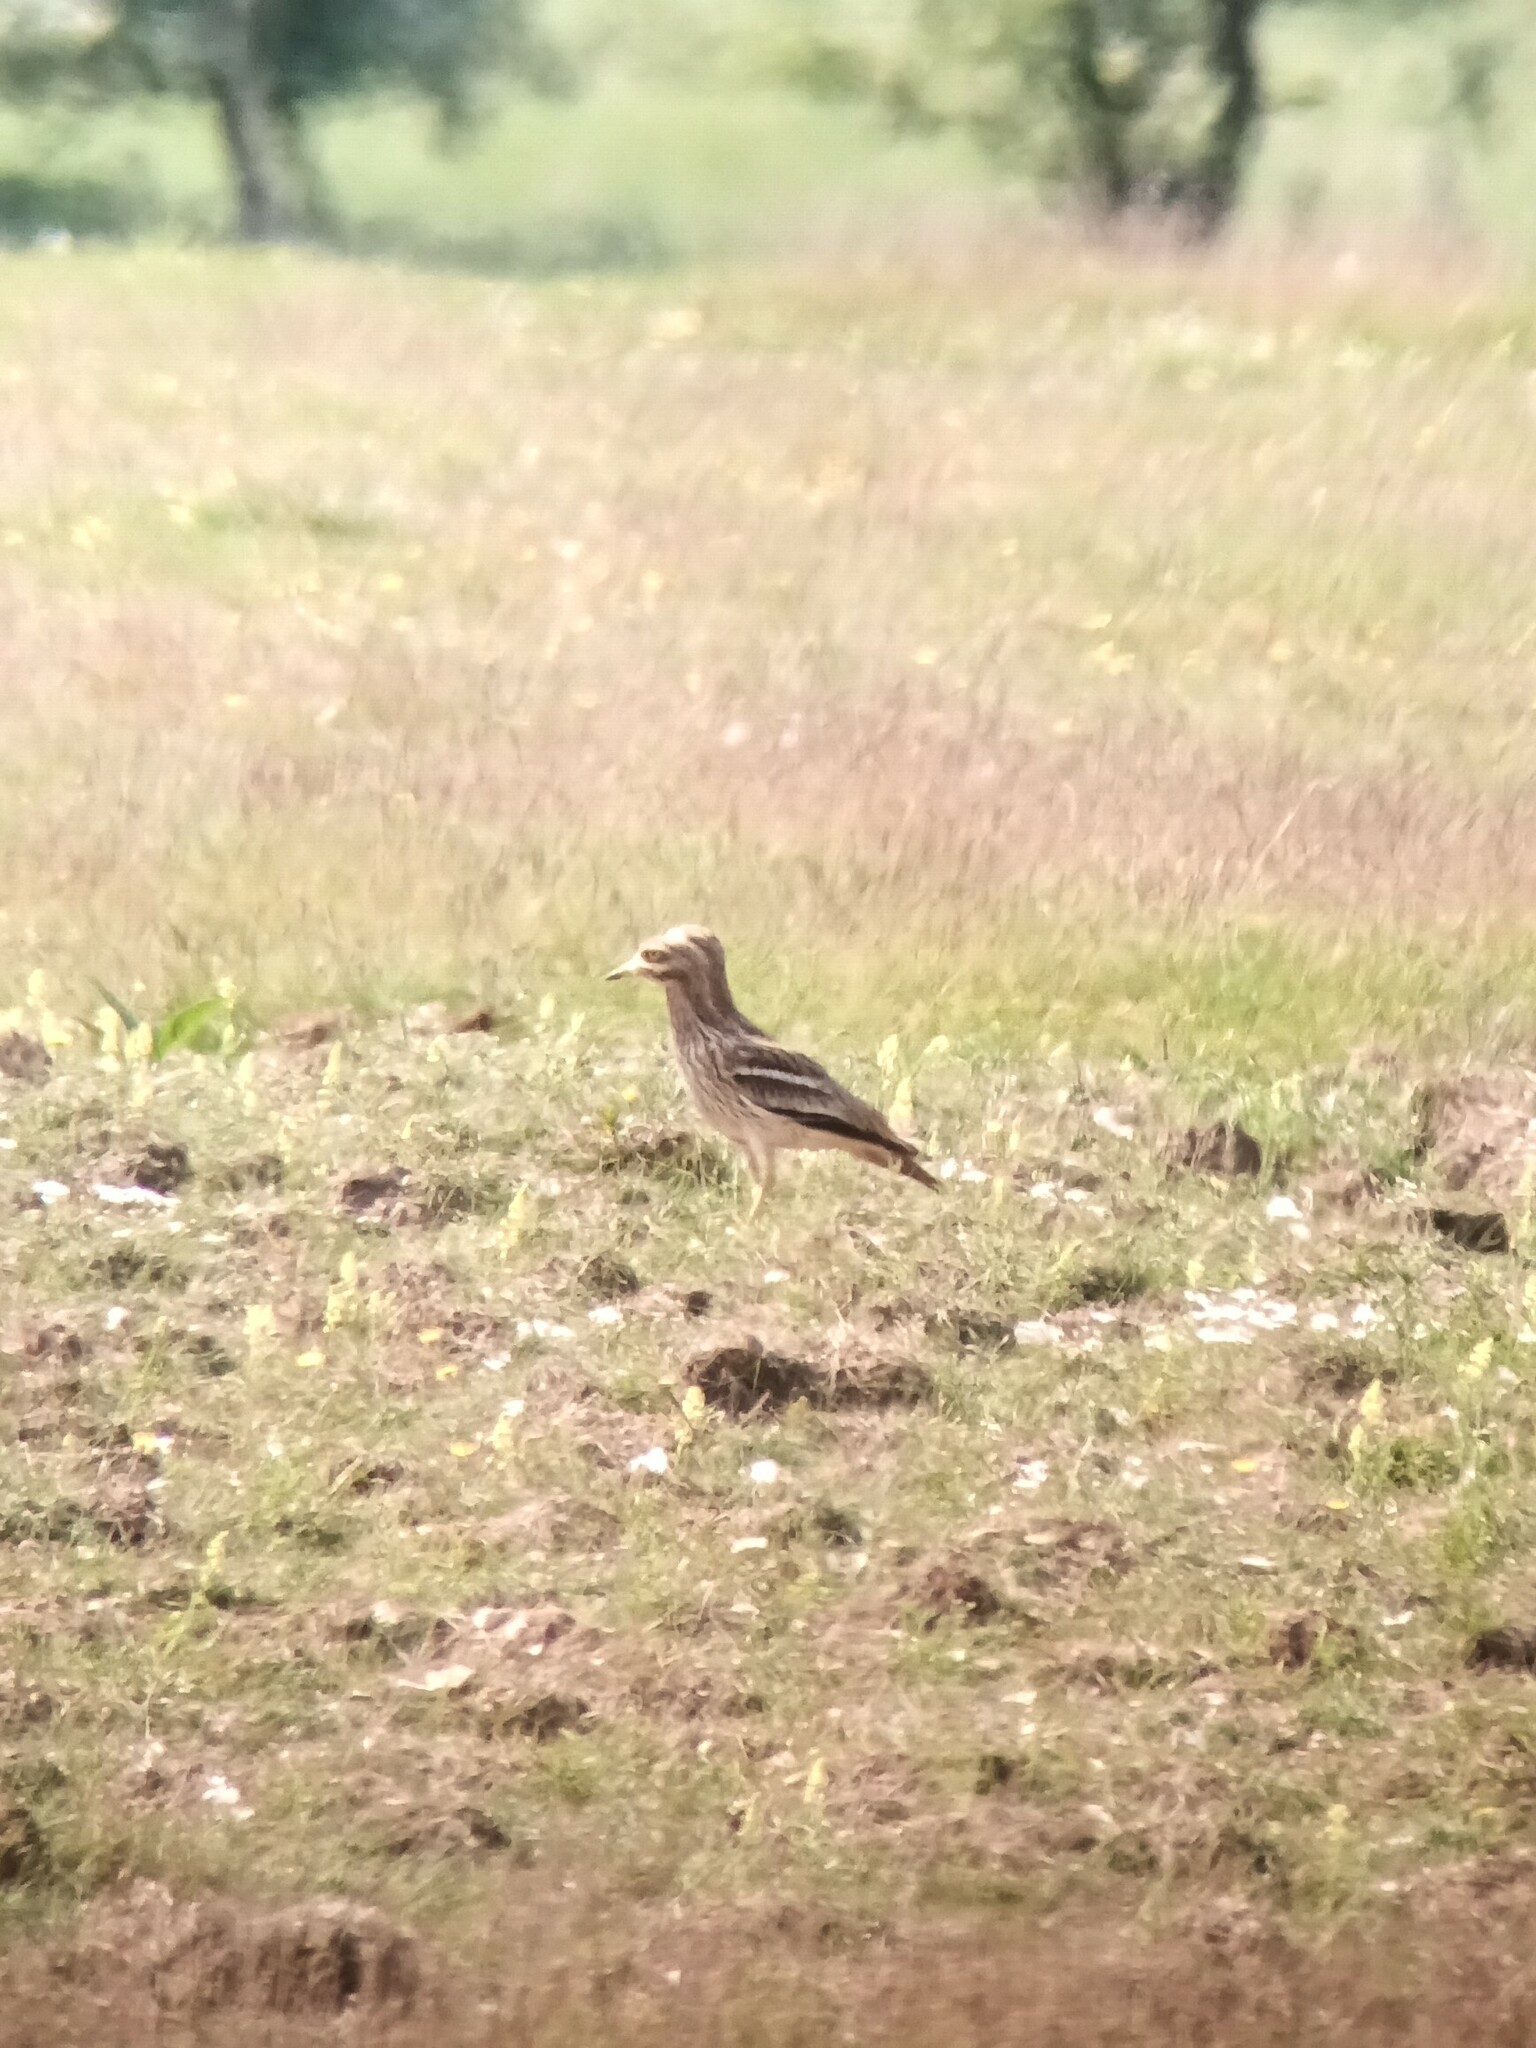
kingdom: Animalia
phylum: Chordata
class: Aves
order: Charadriiformes
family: Burhinidae
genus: Burhinus
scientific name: Burhinus oedicnemus
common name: Eurasian stone-curlew
